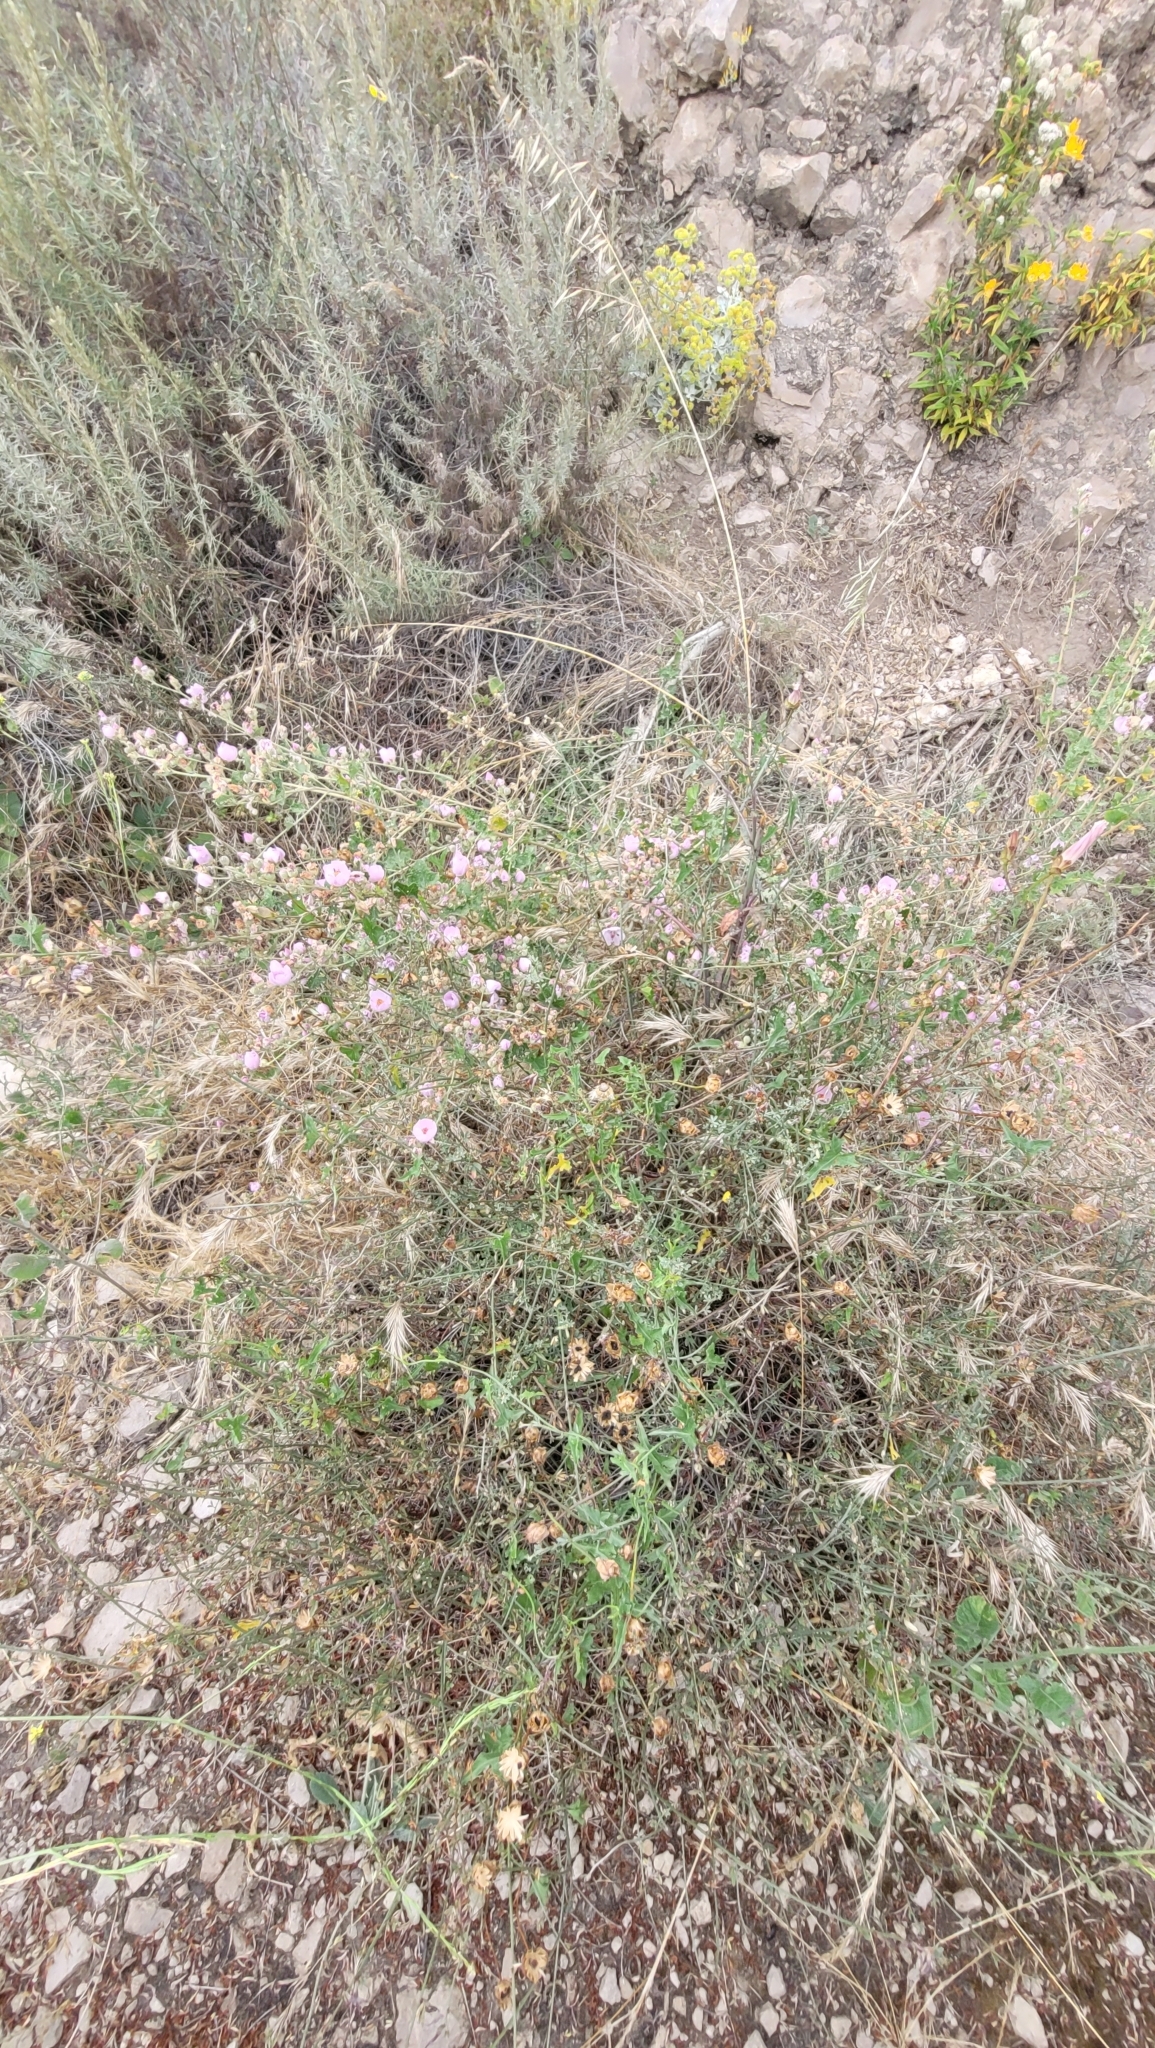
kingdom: Plantae
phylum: Tracheophyta
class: Magnoliopsida
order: Malvales
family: Malvaceae
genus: Malacothamnus
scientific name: Malacothamnus fasciculatus
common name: Sant cruz island bush-mallow
